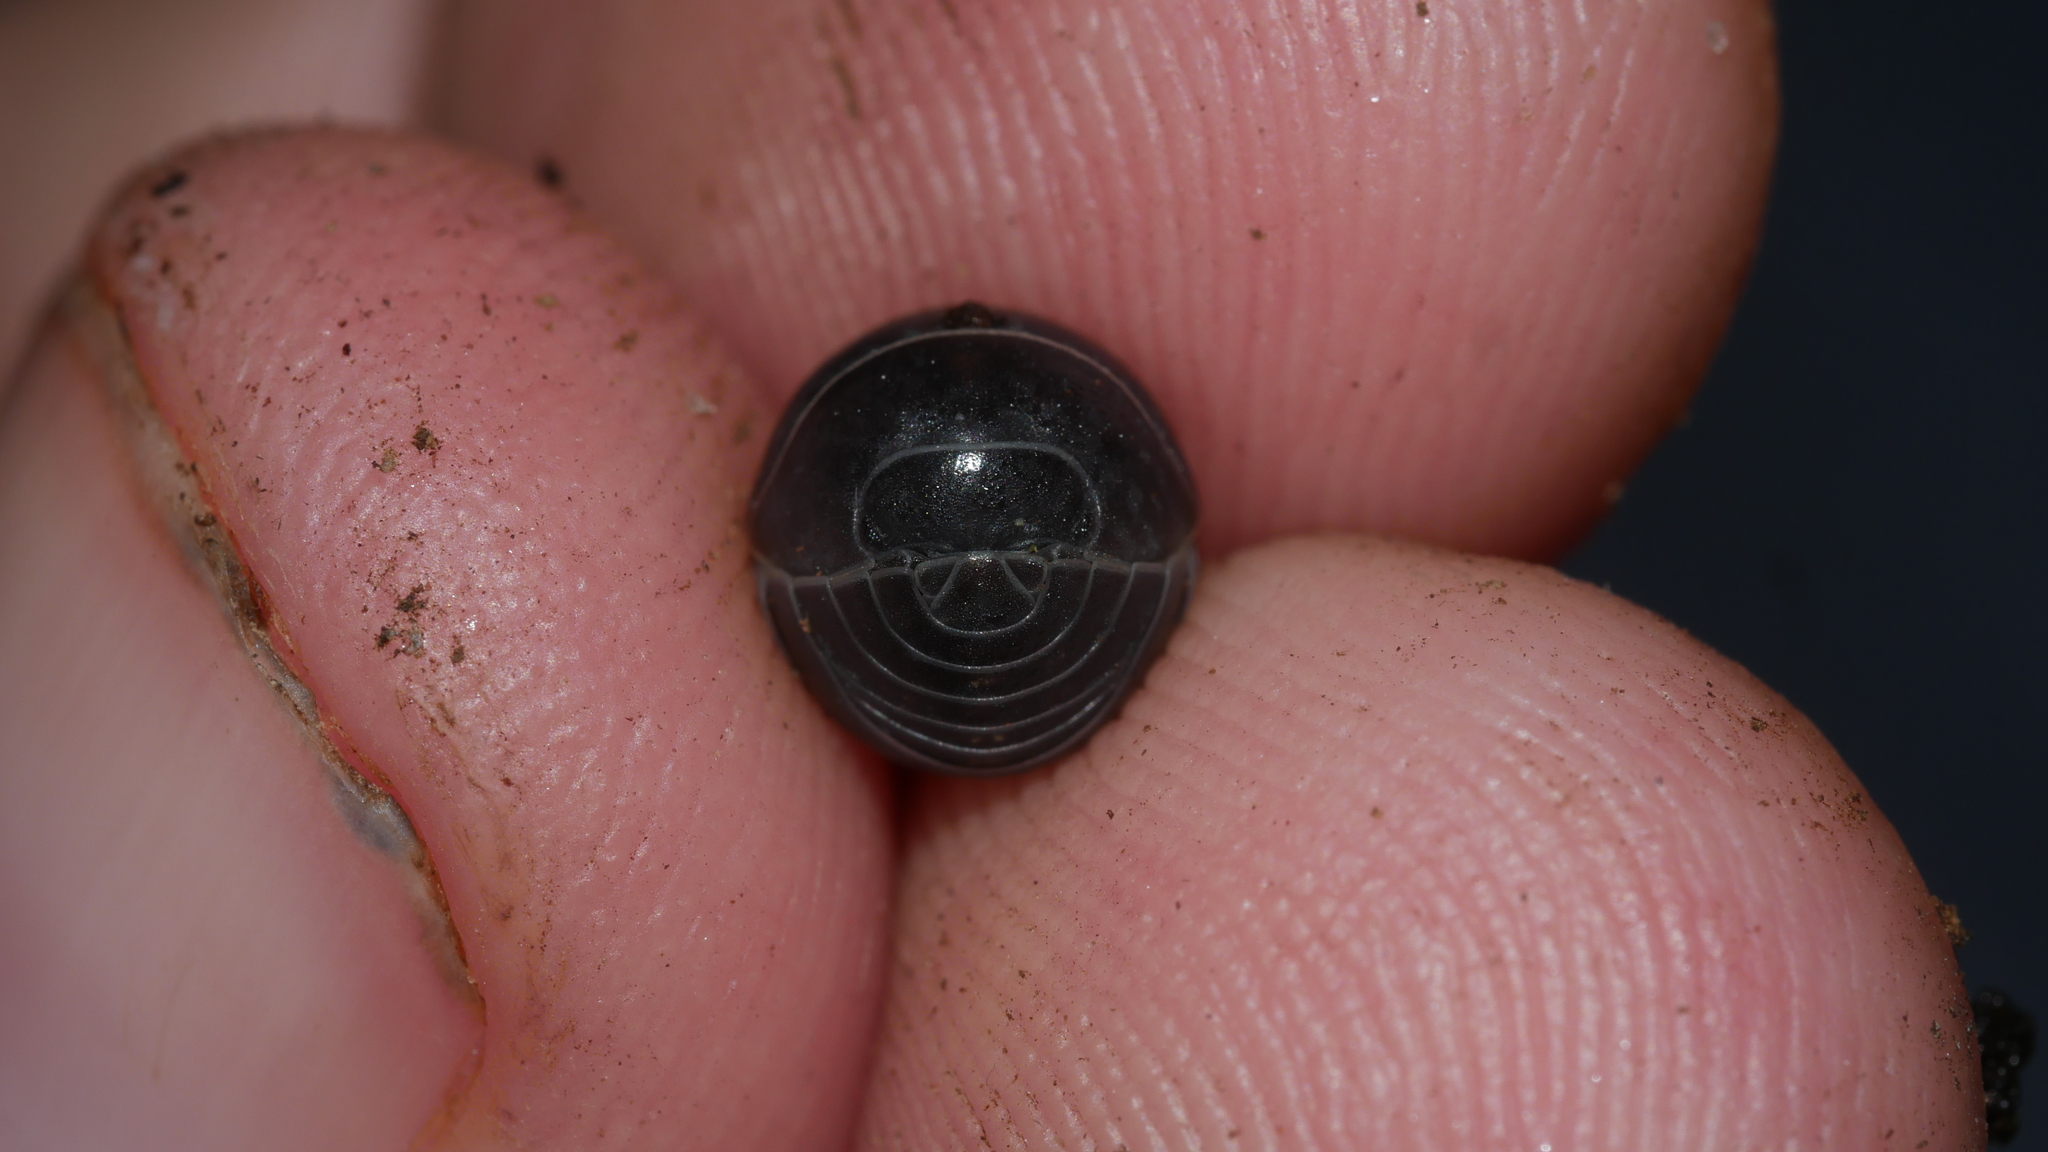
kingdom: Animalia
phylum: Arthropoda
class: Malacostraca
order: Isopoda
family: Armadillidiidae
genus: Armadillidium
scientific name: Armadillidium vulgare
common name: Common pill woodlouse
